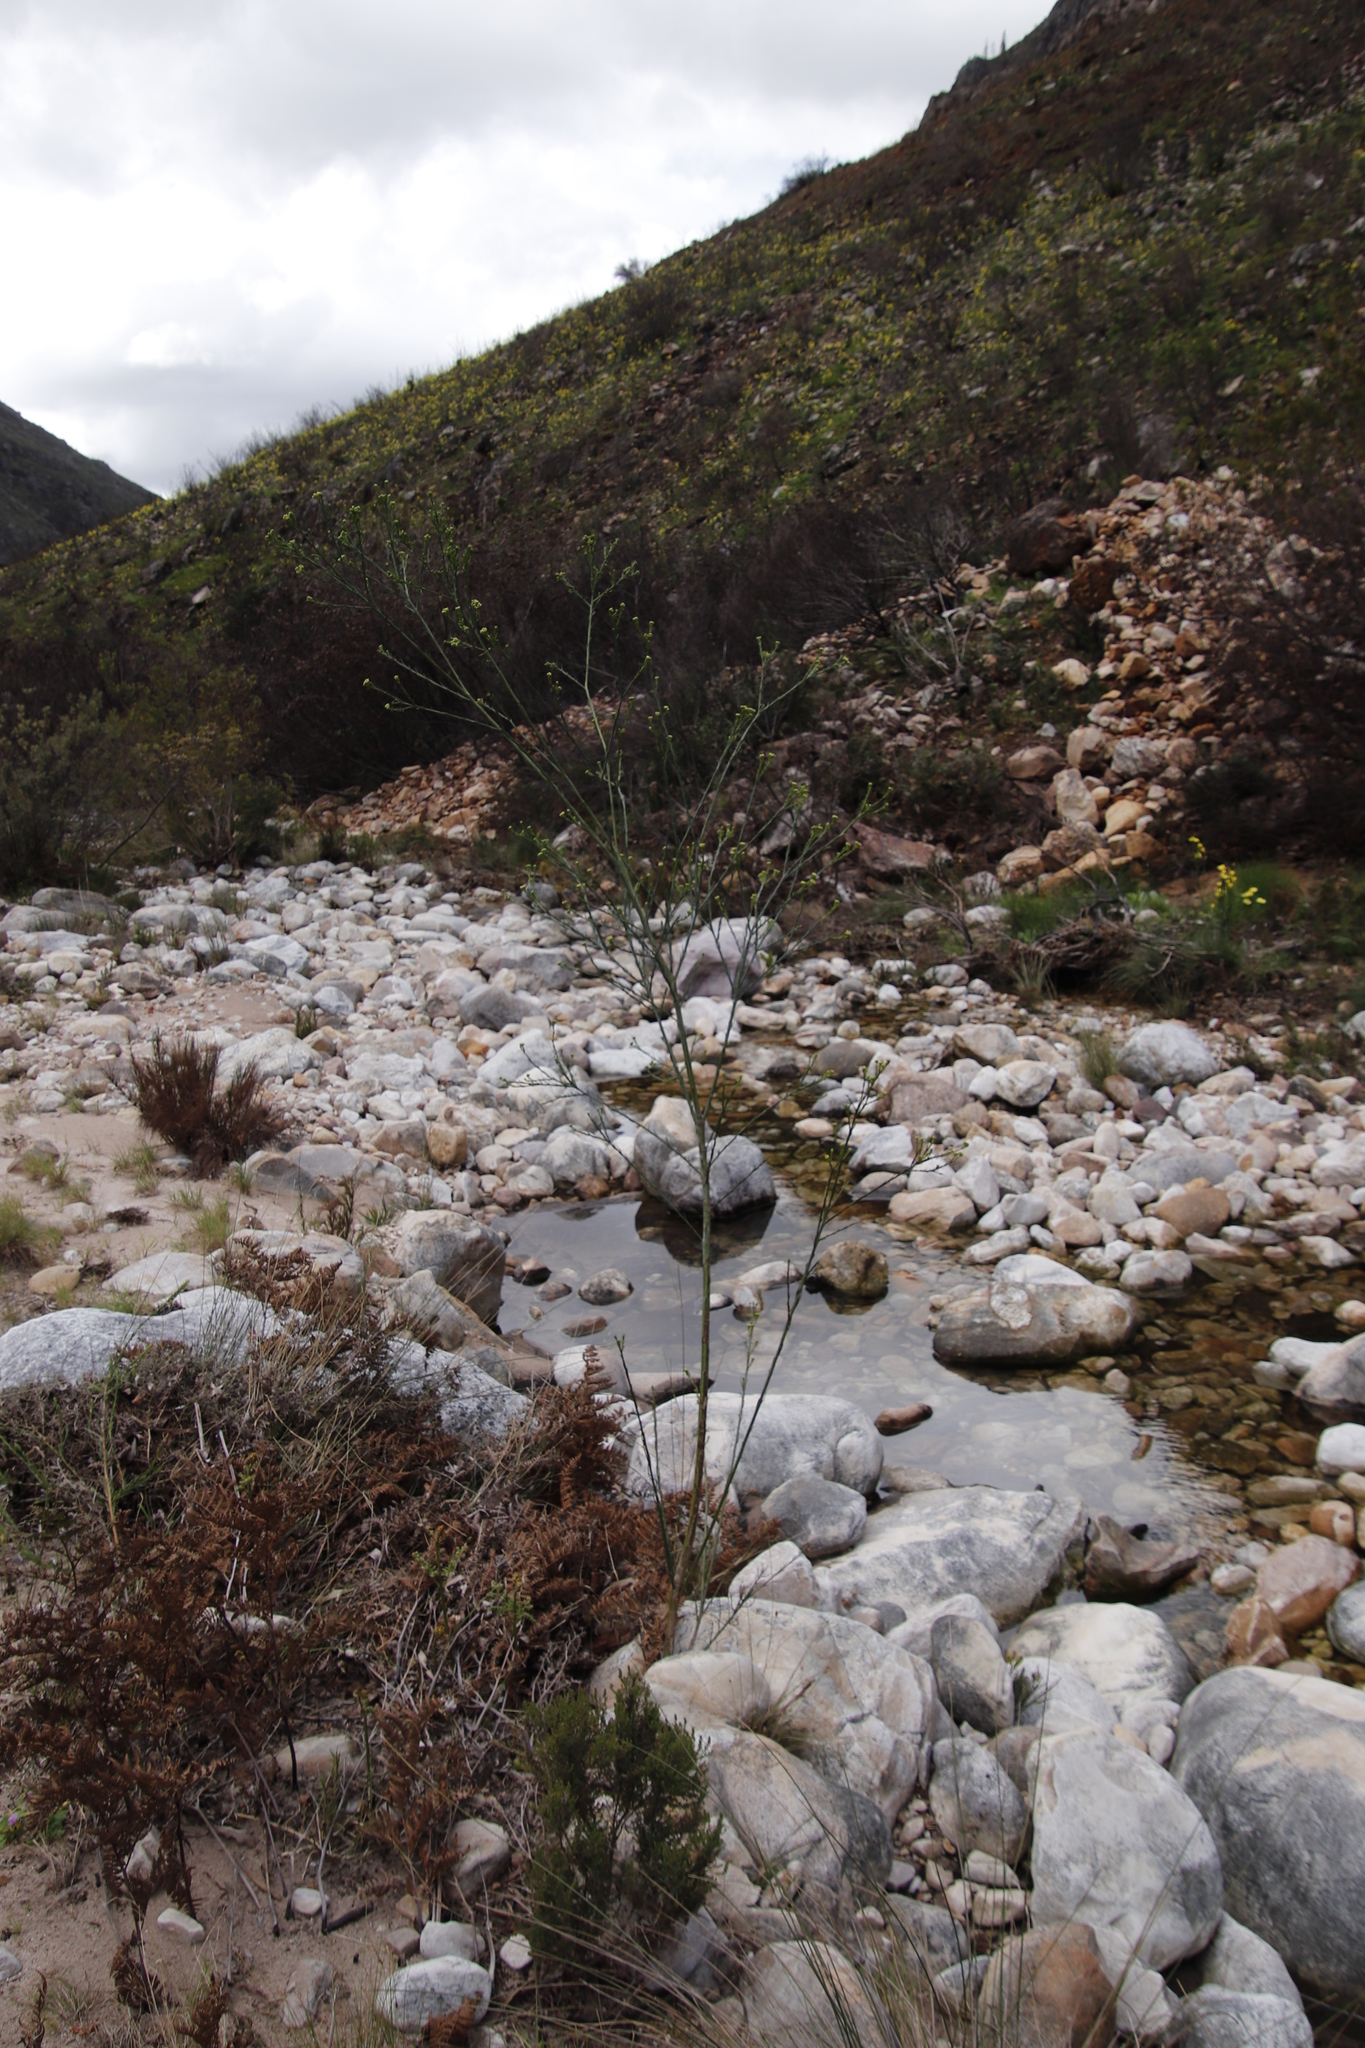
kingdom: Plantae
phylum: Tracheophyta
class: Magnoliopsida
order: Santalales
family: Thesiaceae
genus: Thesium
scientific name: Thesium strictum
